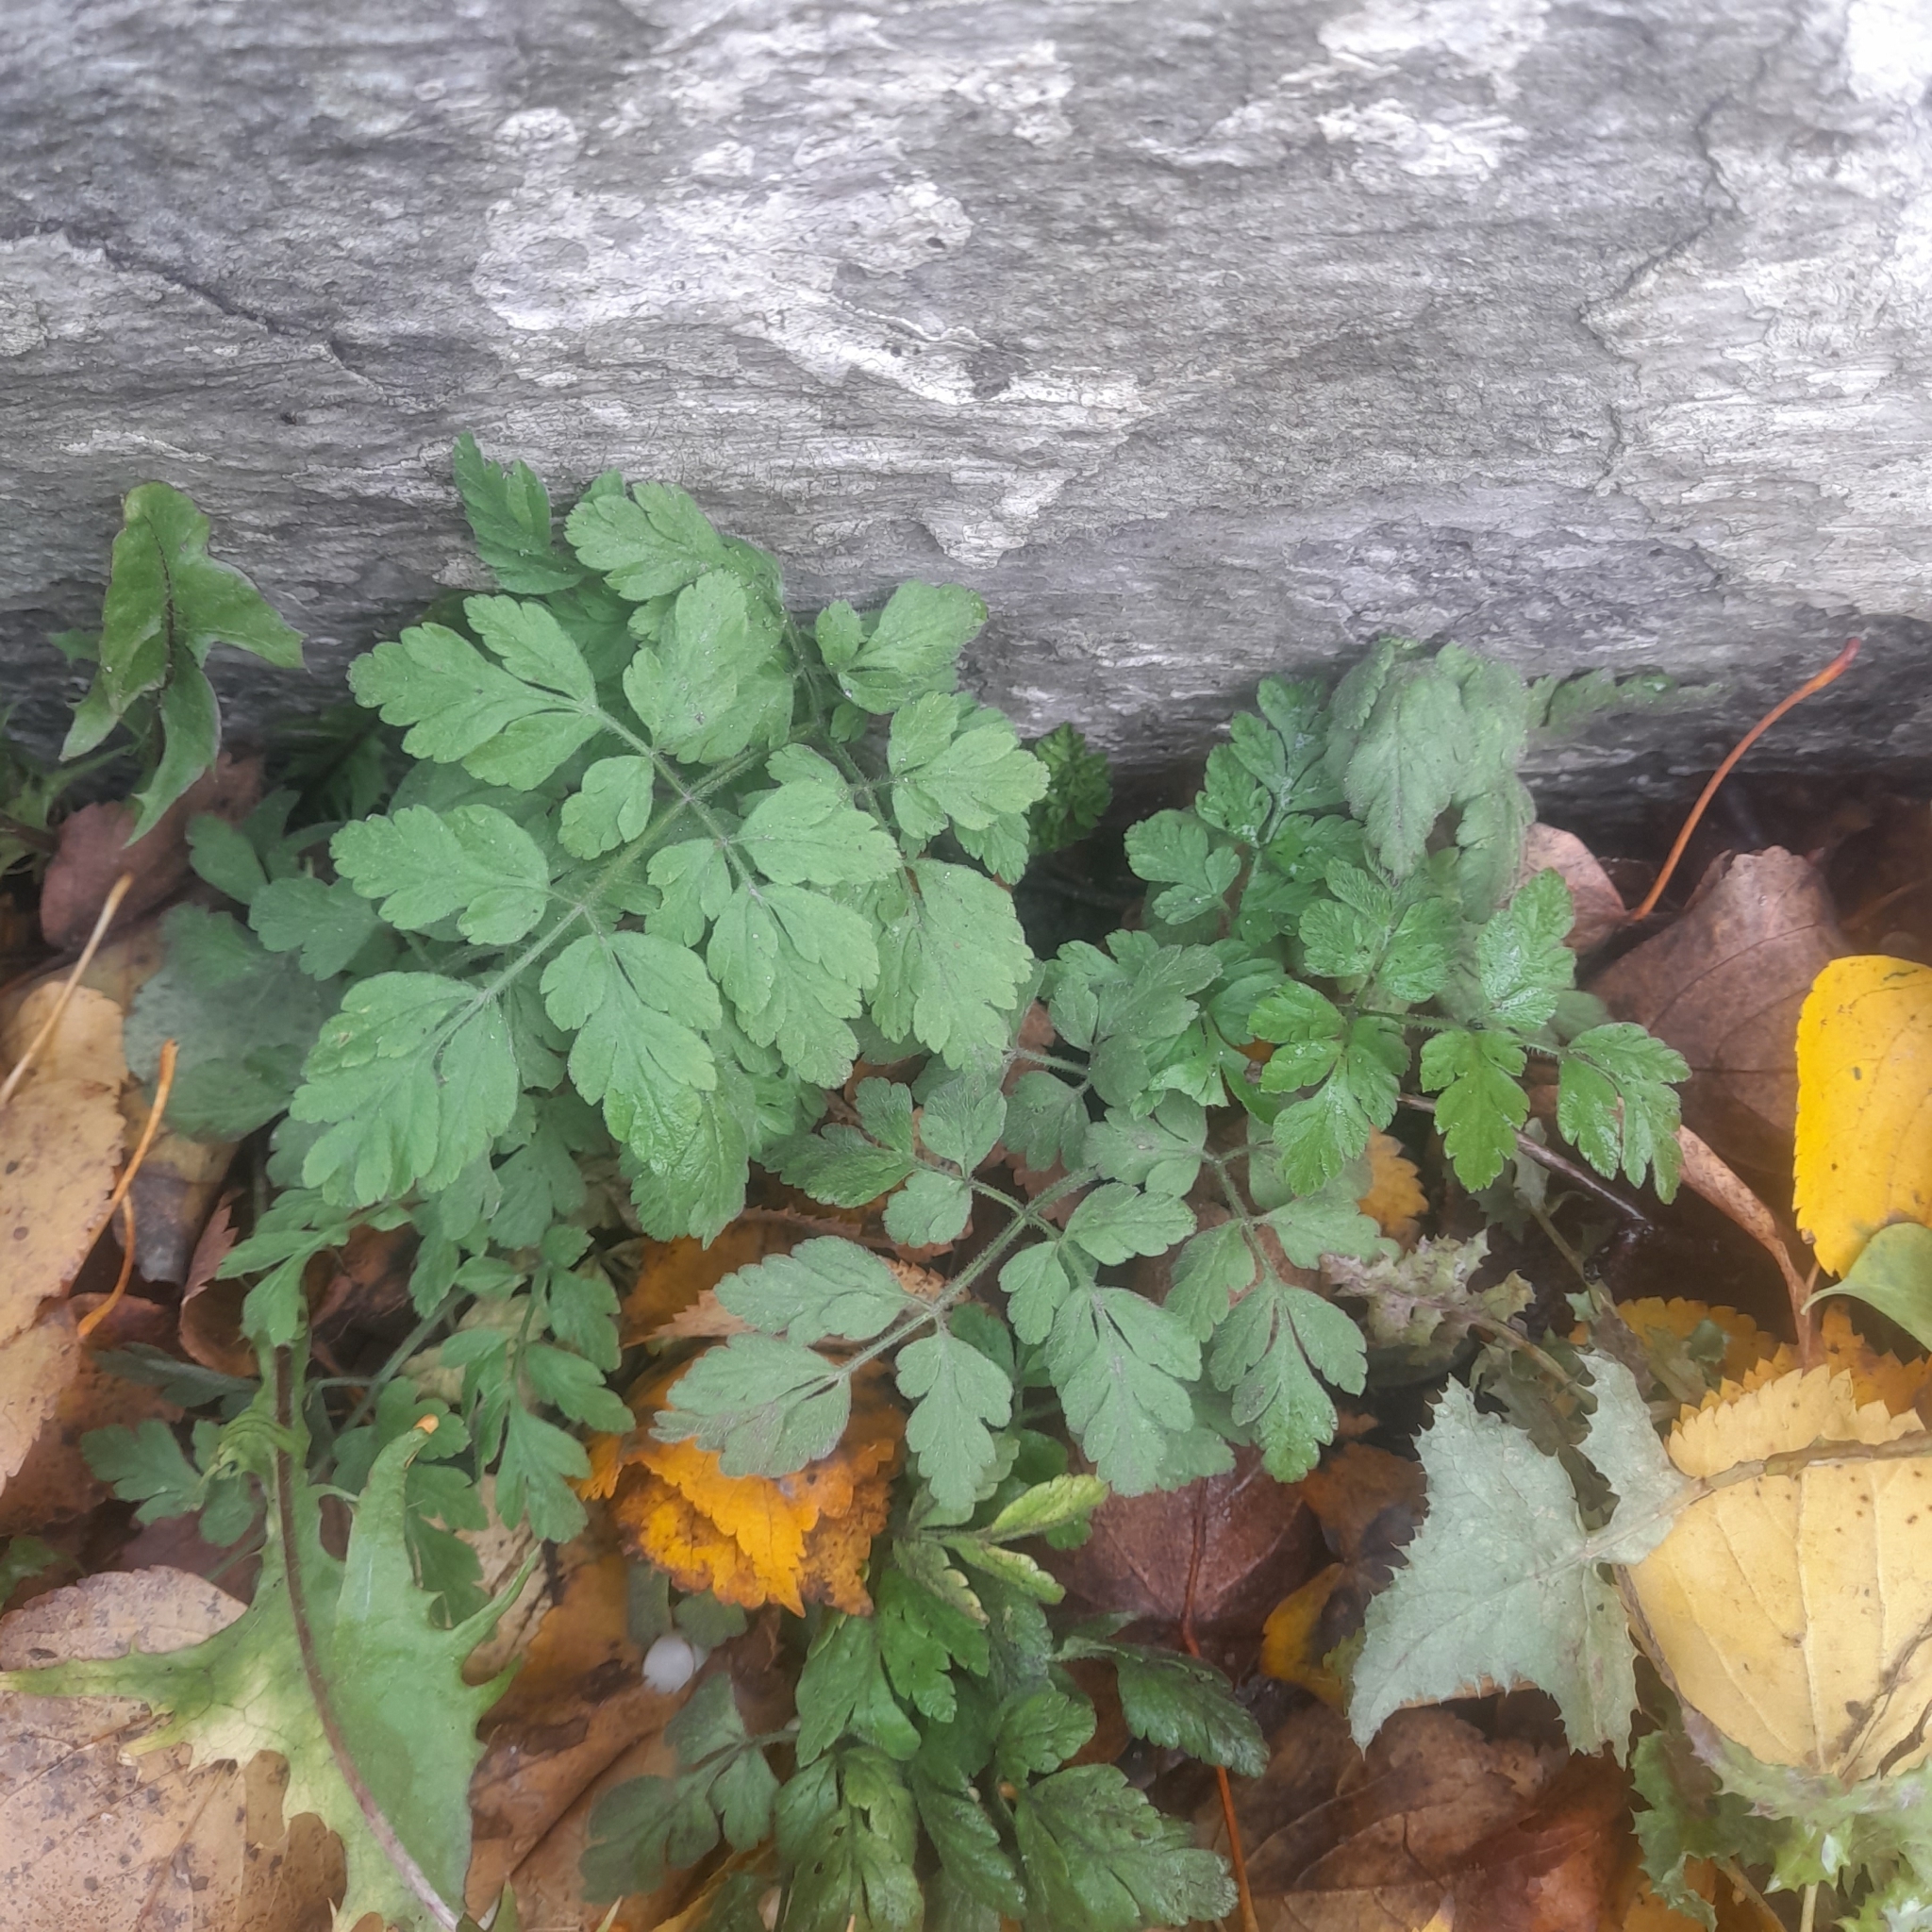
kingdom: Plantae
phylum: Tracheophyta
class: Magnoliopsida
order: Apiales
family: Apiaceae
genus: Chaerophyllum
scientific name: Chaerophyllum temulum
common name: Rough chervil
